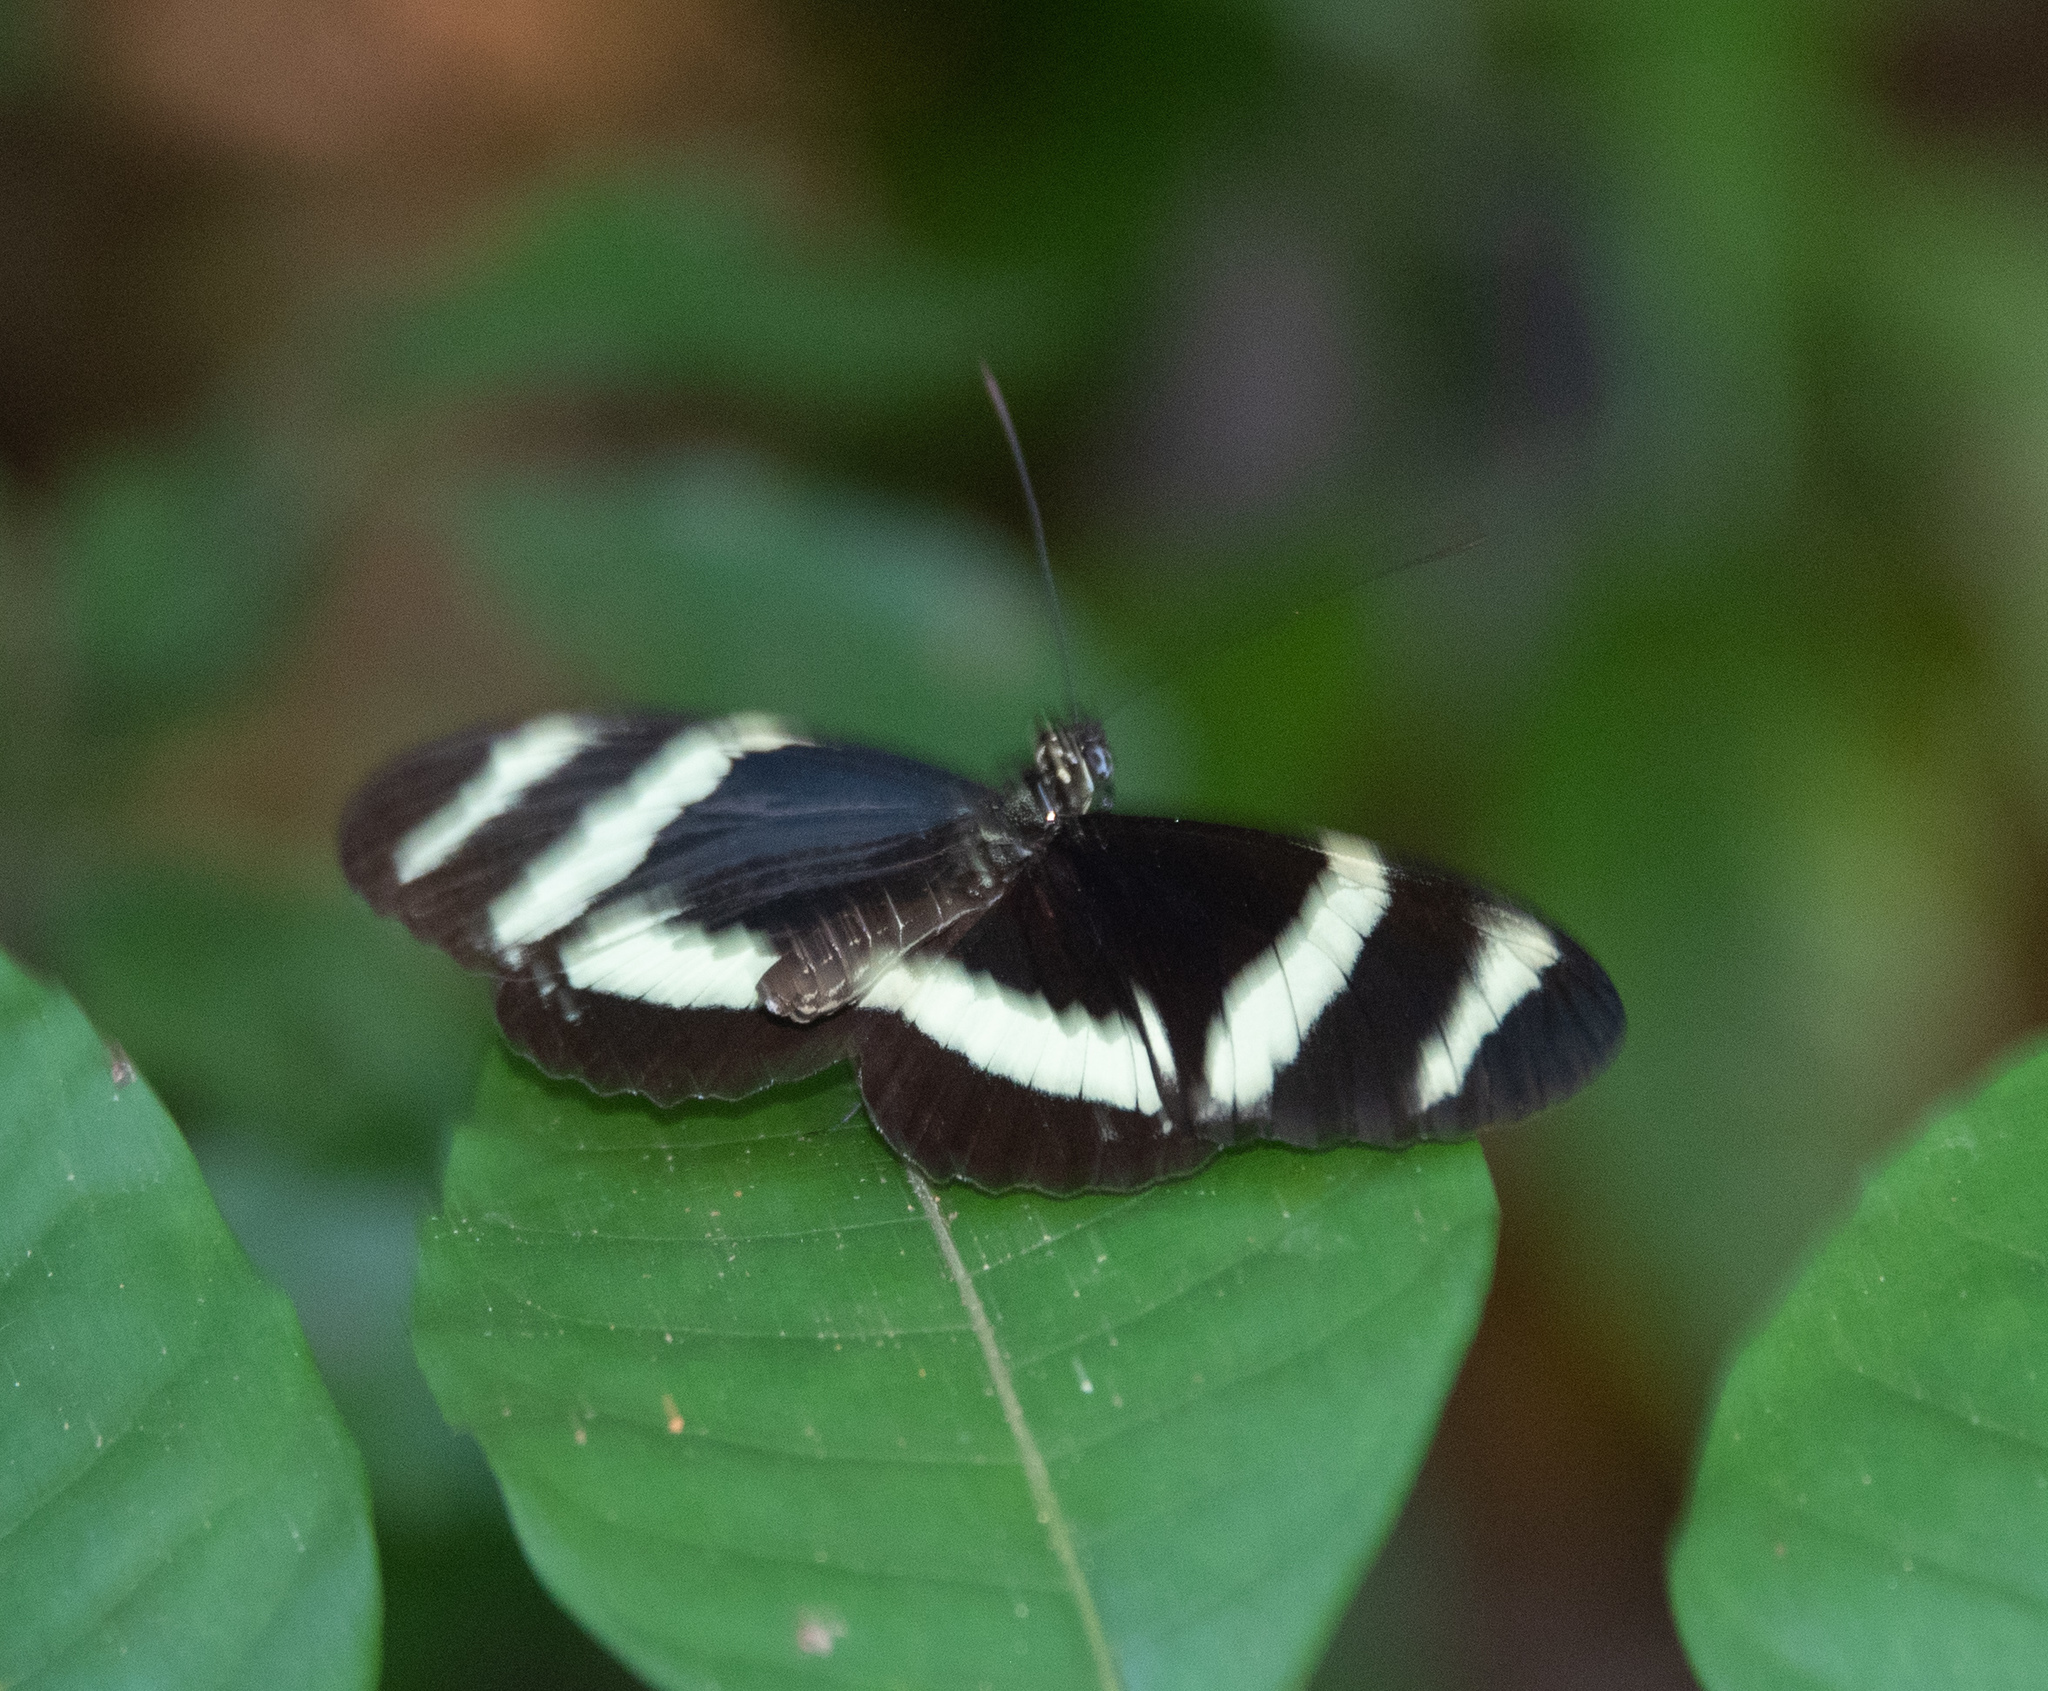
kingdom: Animalia
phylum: Arthropoda
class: Insecta
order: Lepidoptera
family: Nymphalidae
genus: Heliconius
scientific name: Heliconius pachinus
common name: Pachinus longwing
